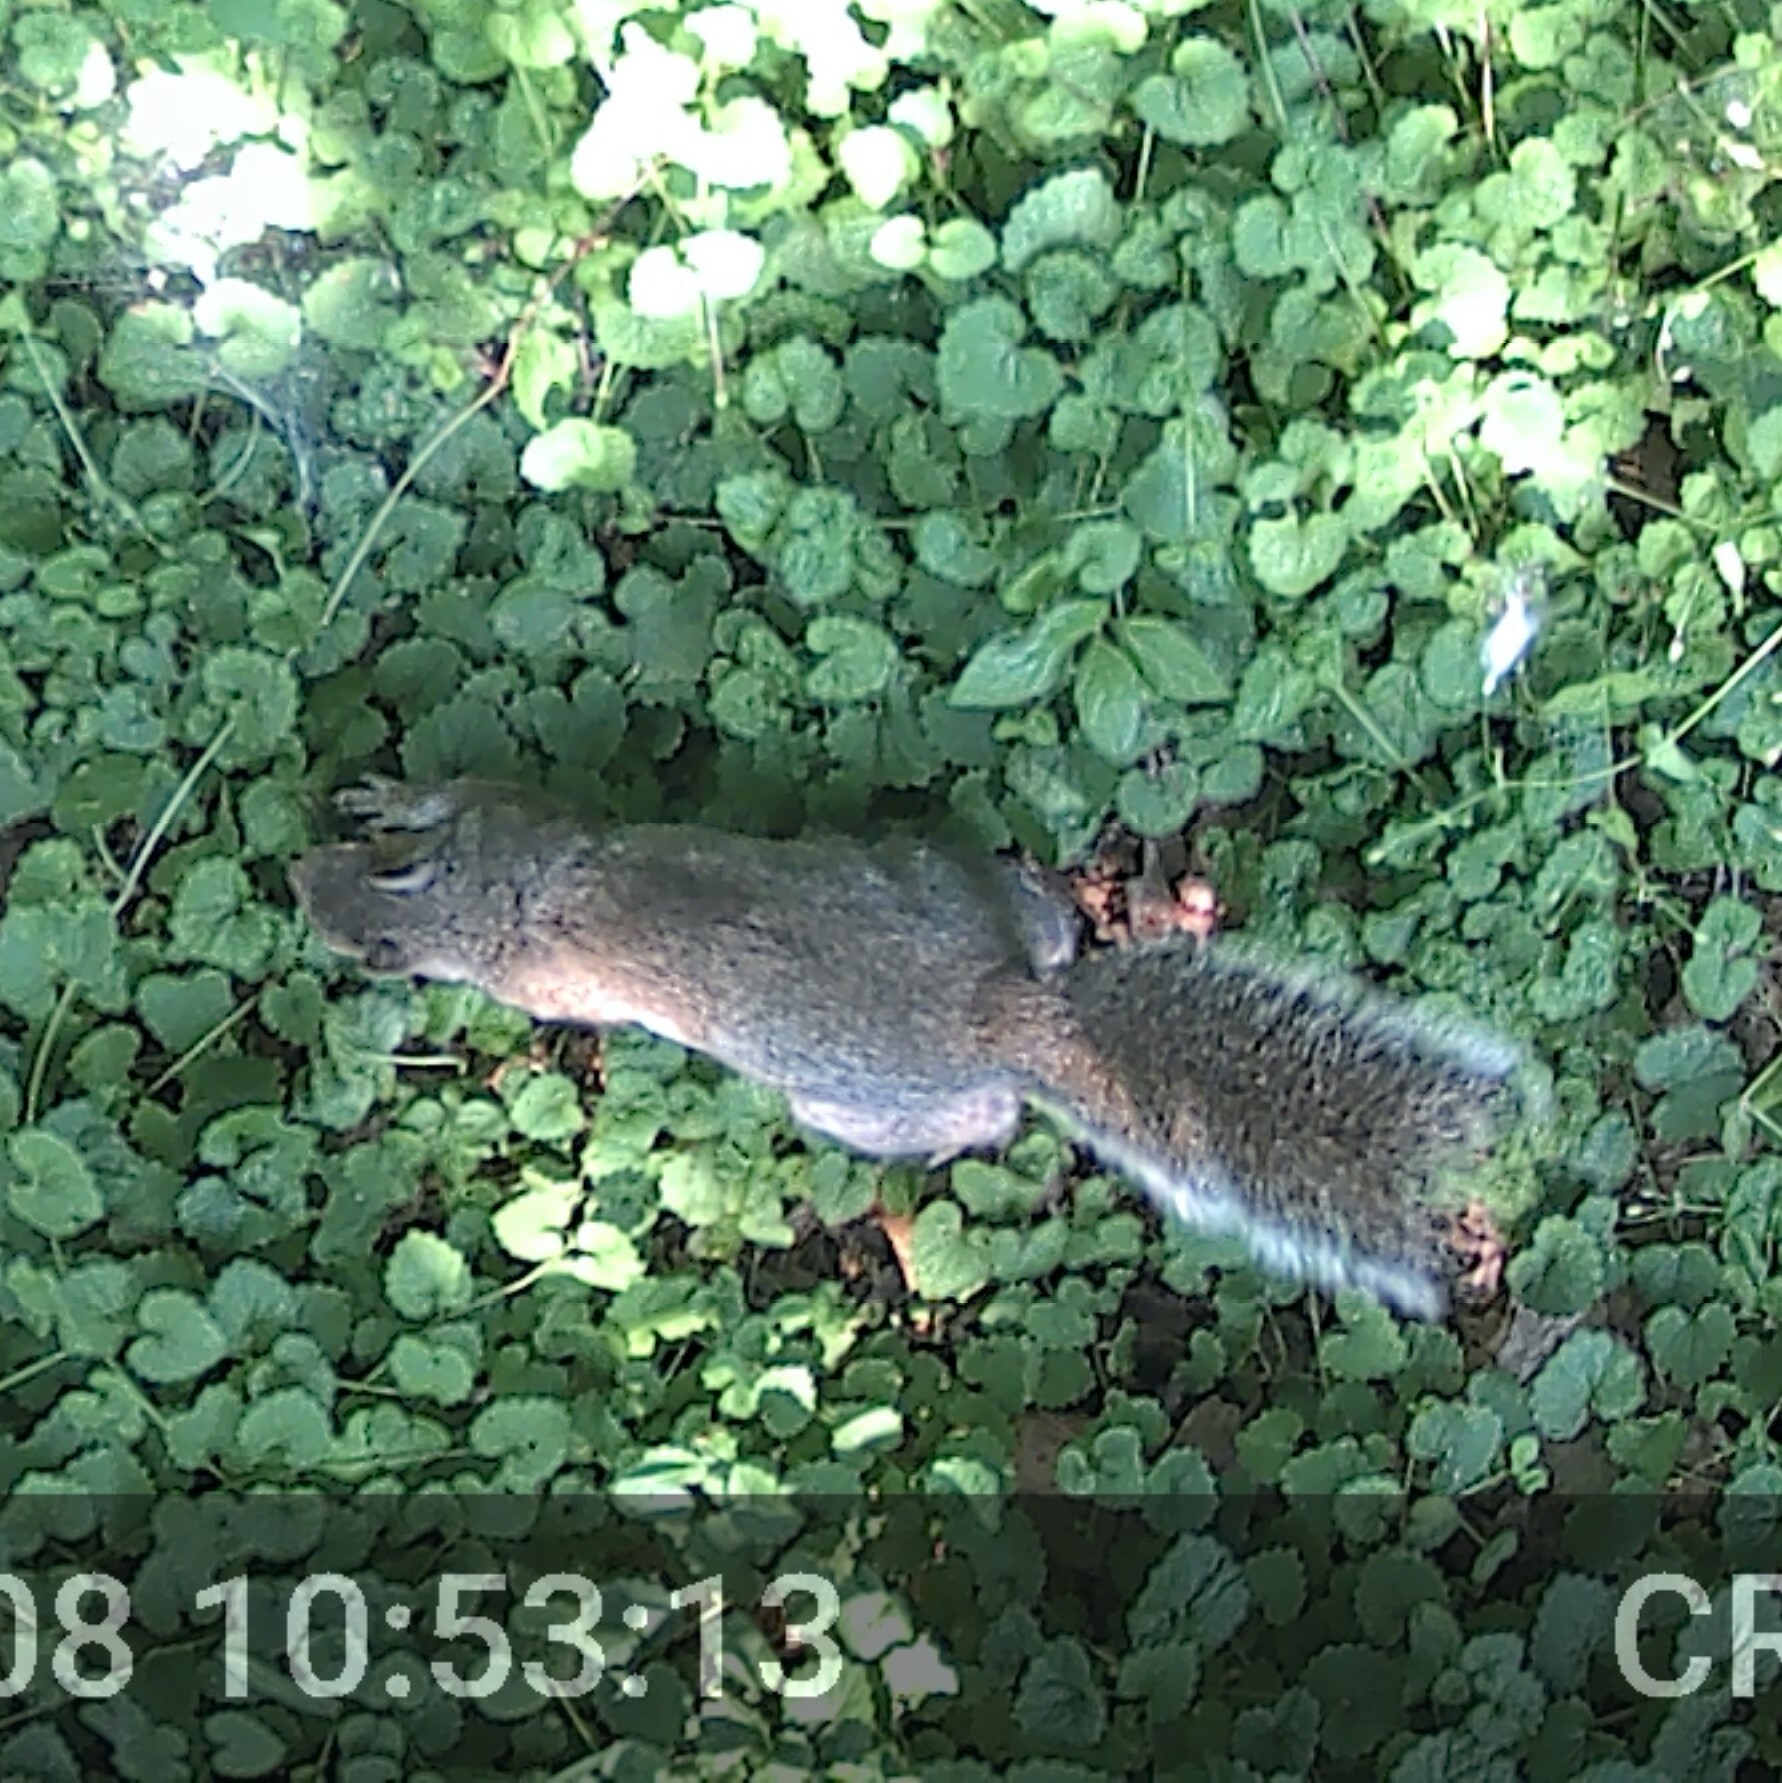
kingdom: Animalia
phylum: Chordata
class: Mammalia
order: Rodentia
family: Sciuridae
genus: Sciurus
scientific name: Sciurus carolinensis
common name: Eastern gray squirrel
